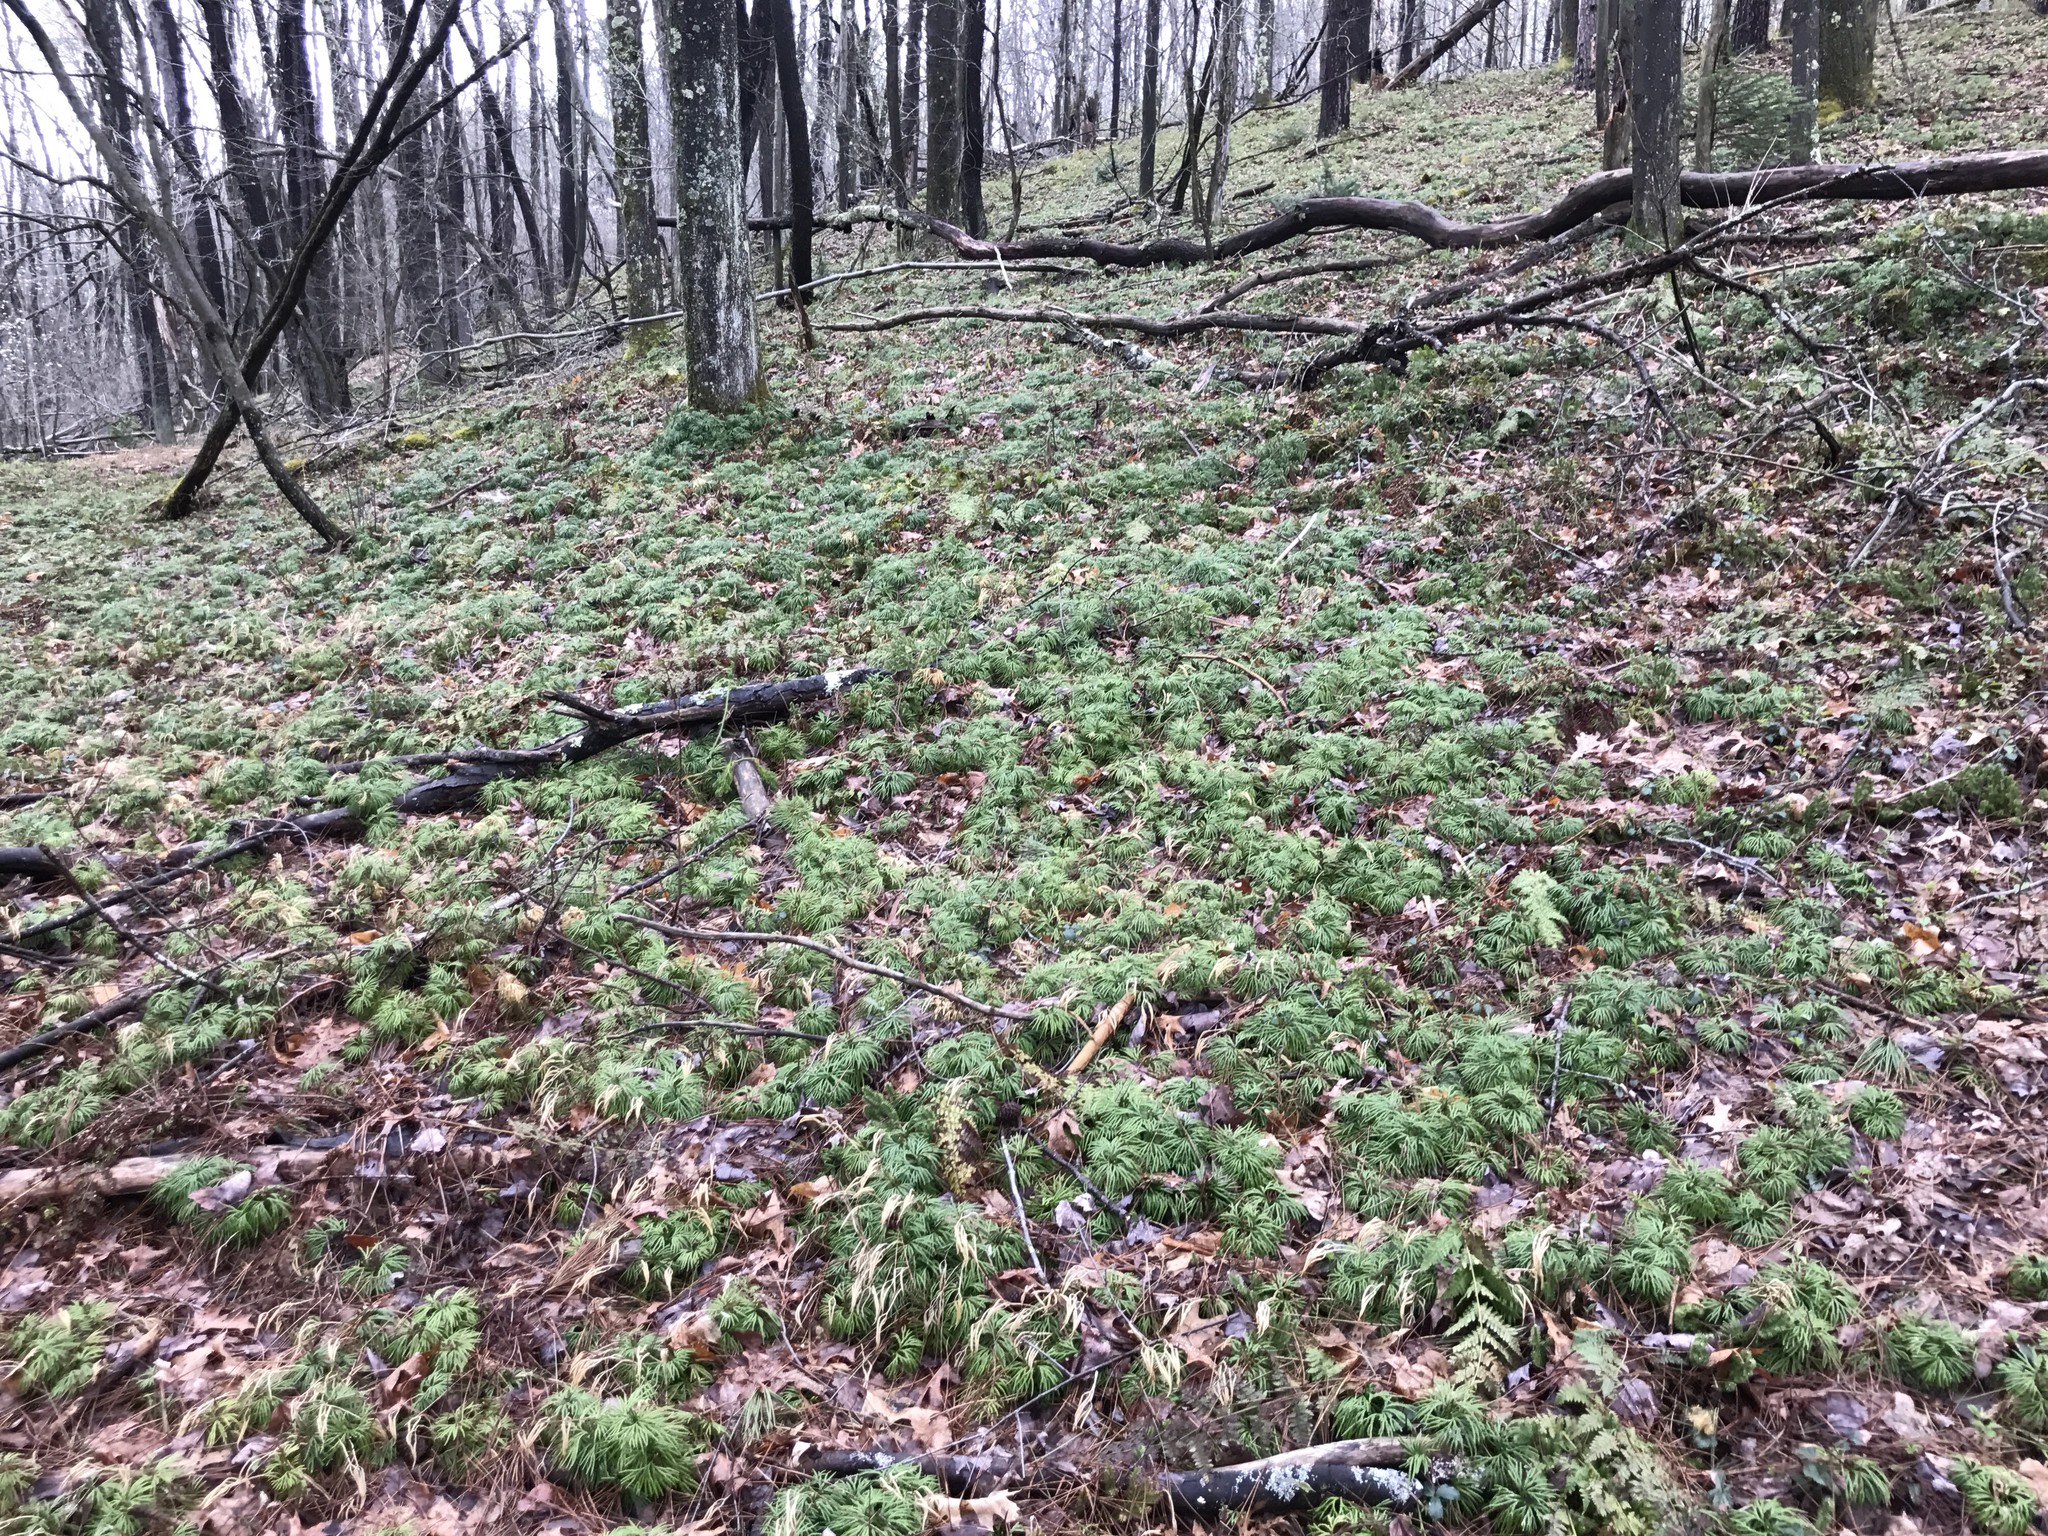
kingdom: Plantae
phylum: Tracheophyta
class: Lycopodiopsida
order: Lycopodiales
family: Lycopodiaceae
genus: Diphasiastrum
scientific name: Diphasiastrum digitatum
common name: Southern running-pine
